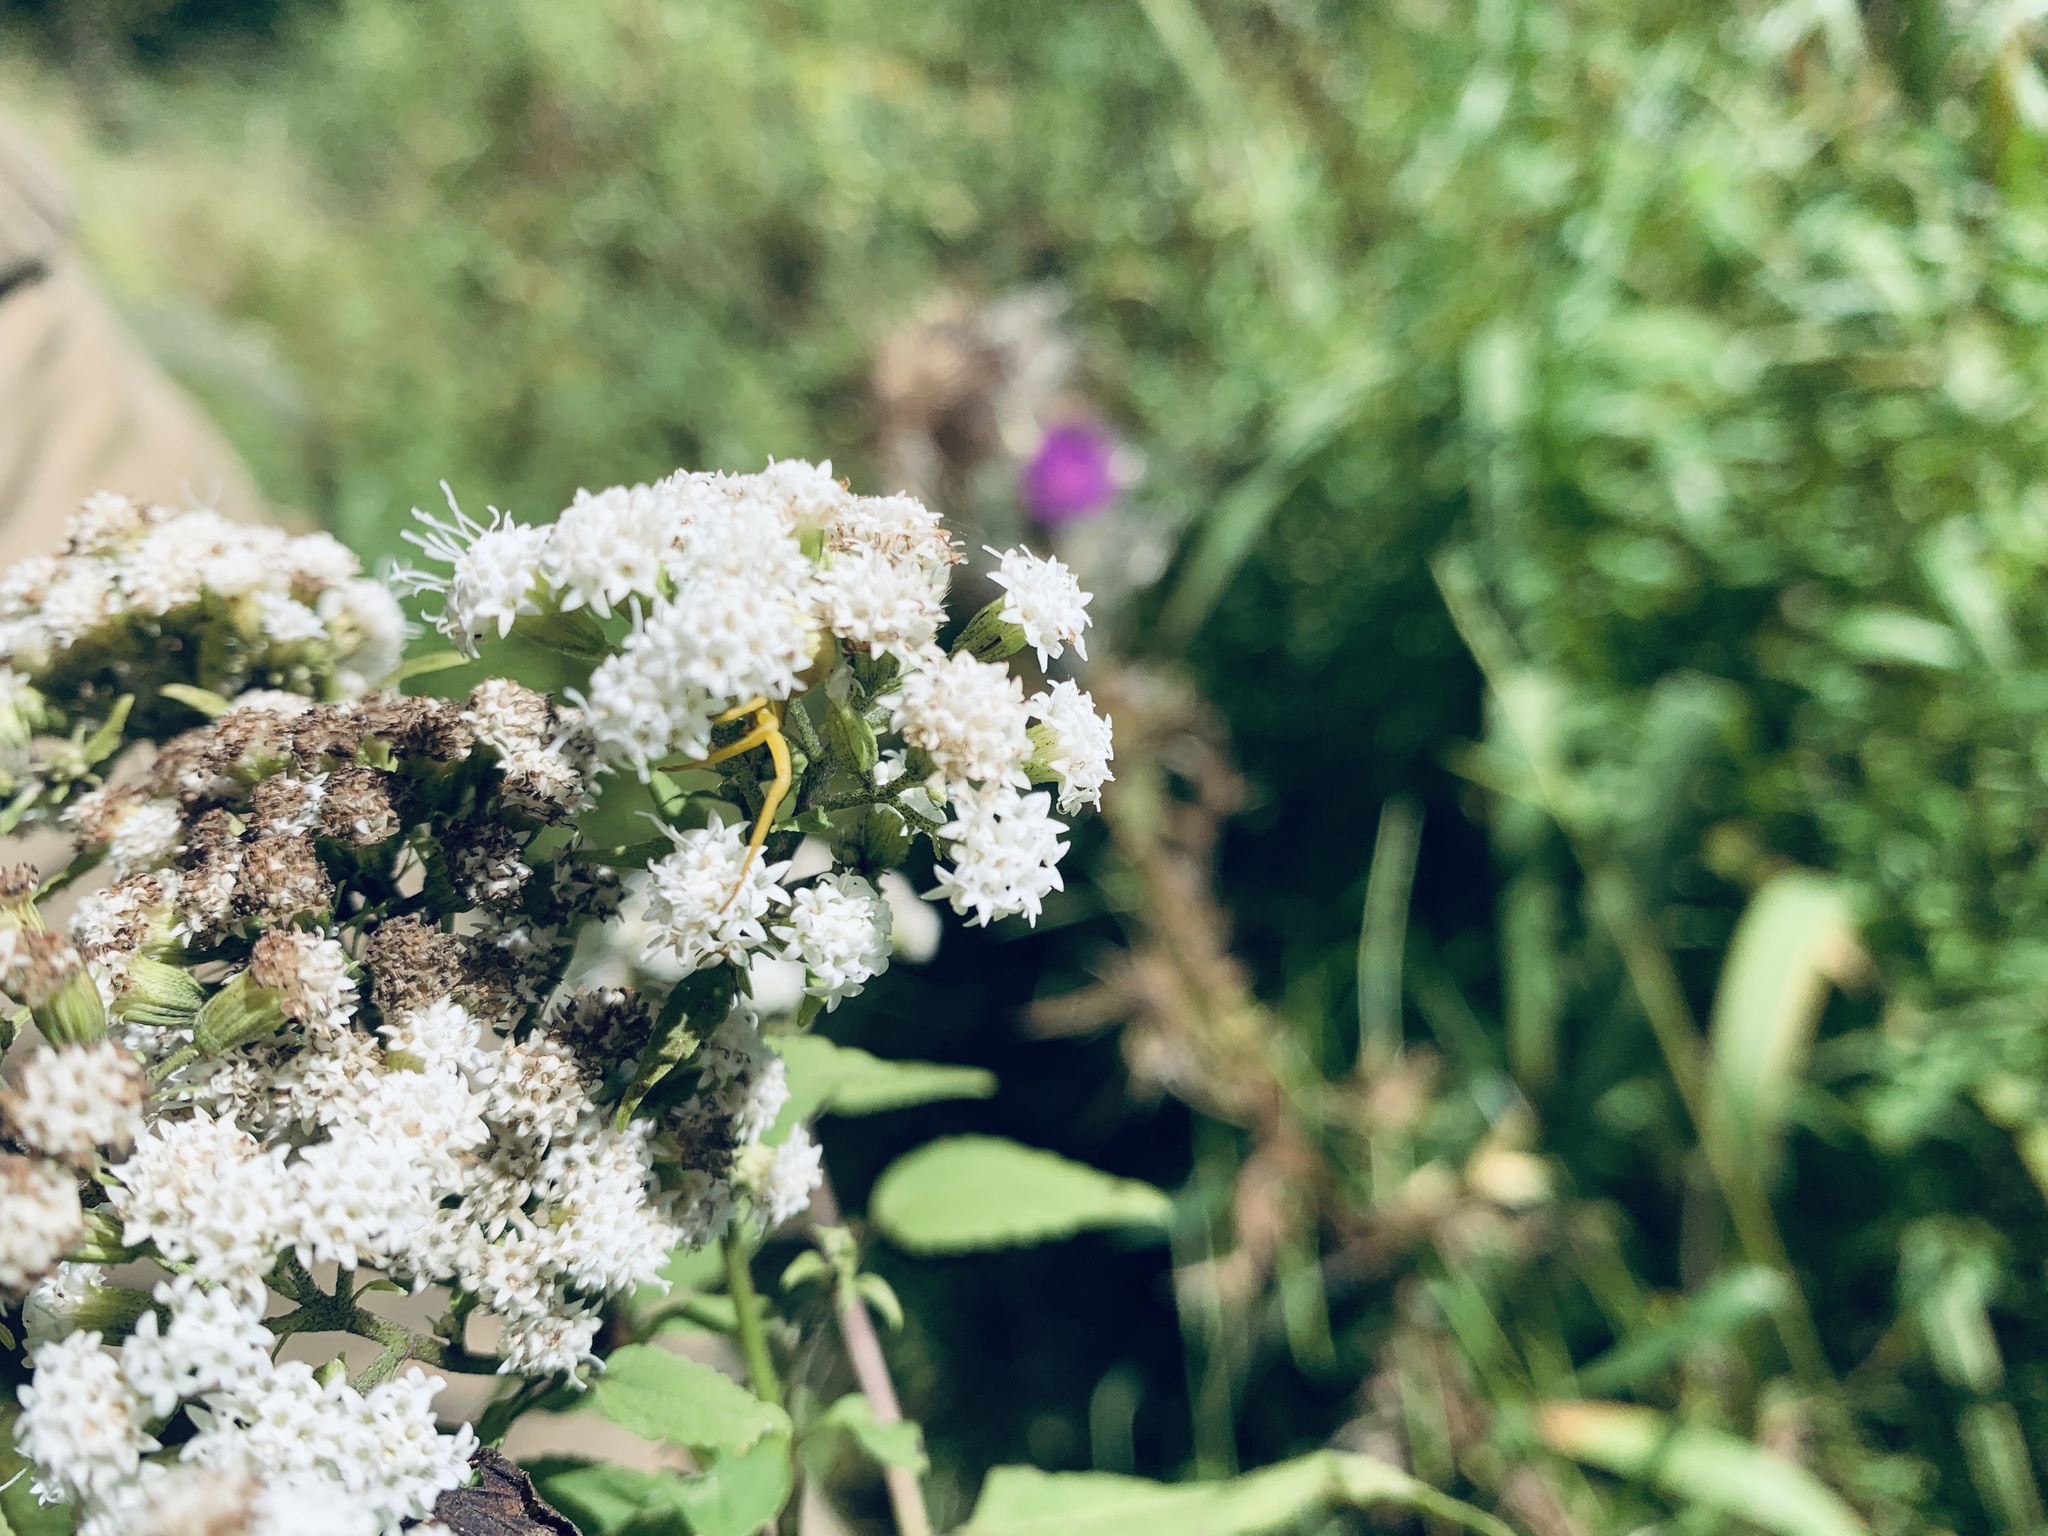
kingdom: Animalia
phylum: Arthropoda
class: Arachnida
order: Araneae
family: Thomisidae
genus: Misumenoides
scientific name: Misumenoides formosipes
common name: White-banded crab spider
